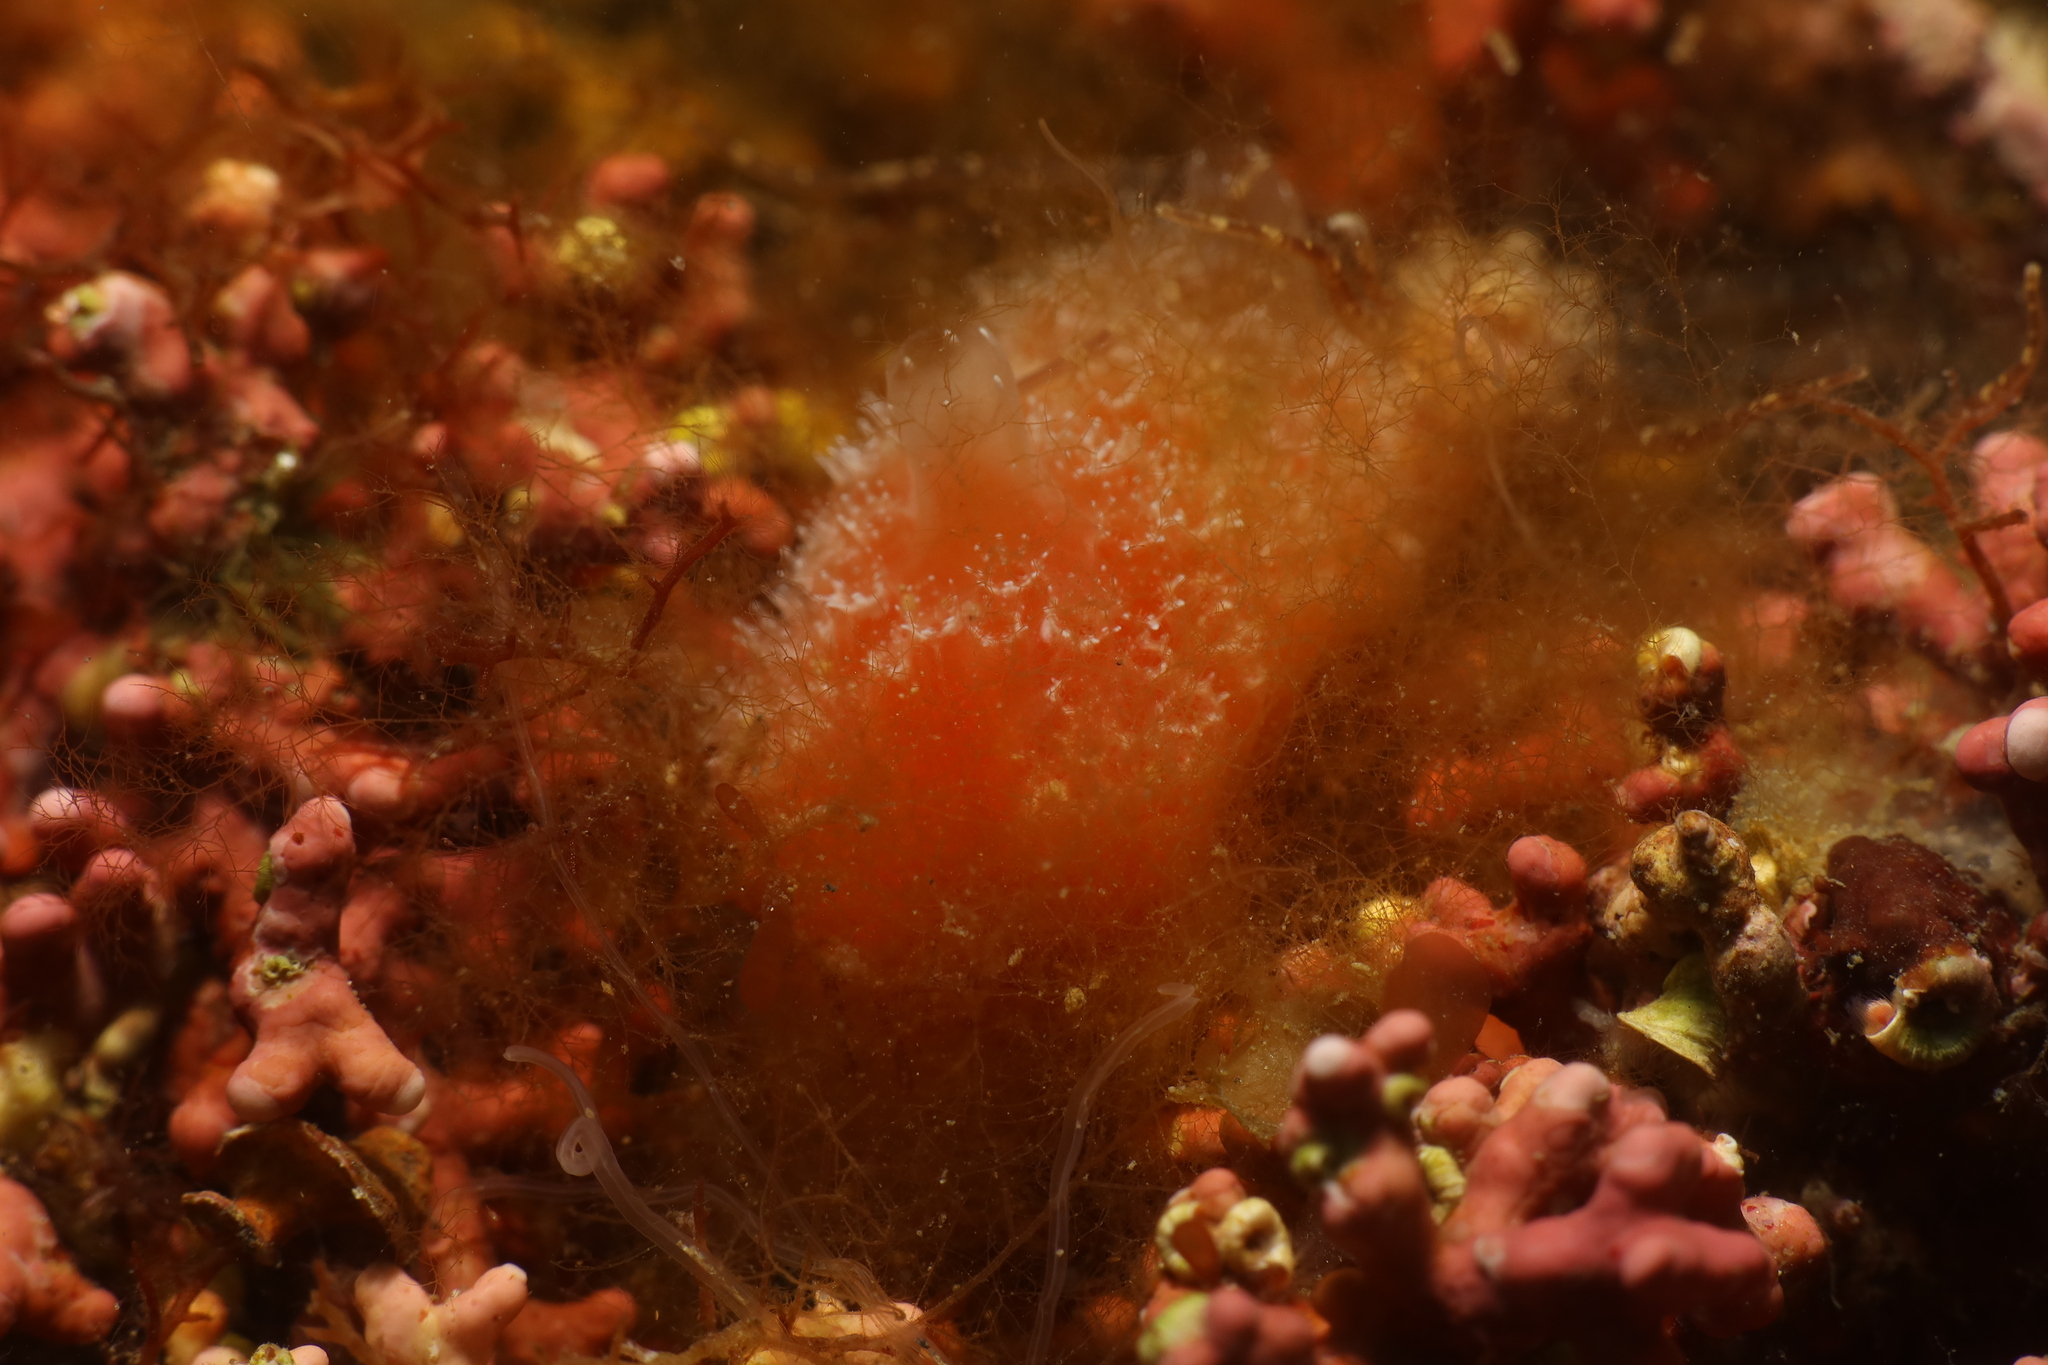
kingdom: Animalia
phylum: Chordata
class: Ascidiacea
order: Aplousobranchia
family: Polyclinidae
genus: Aplidium
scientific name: Aplidium elegans
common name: Sea-strawberry
